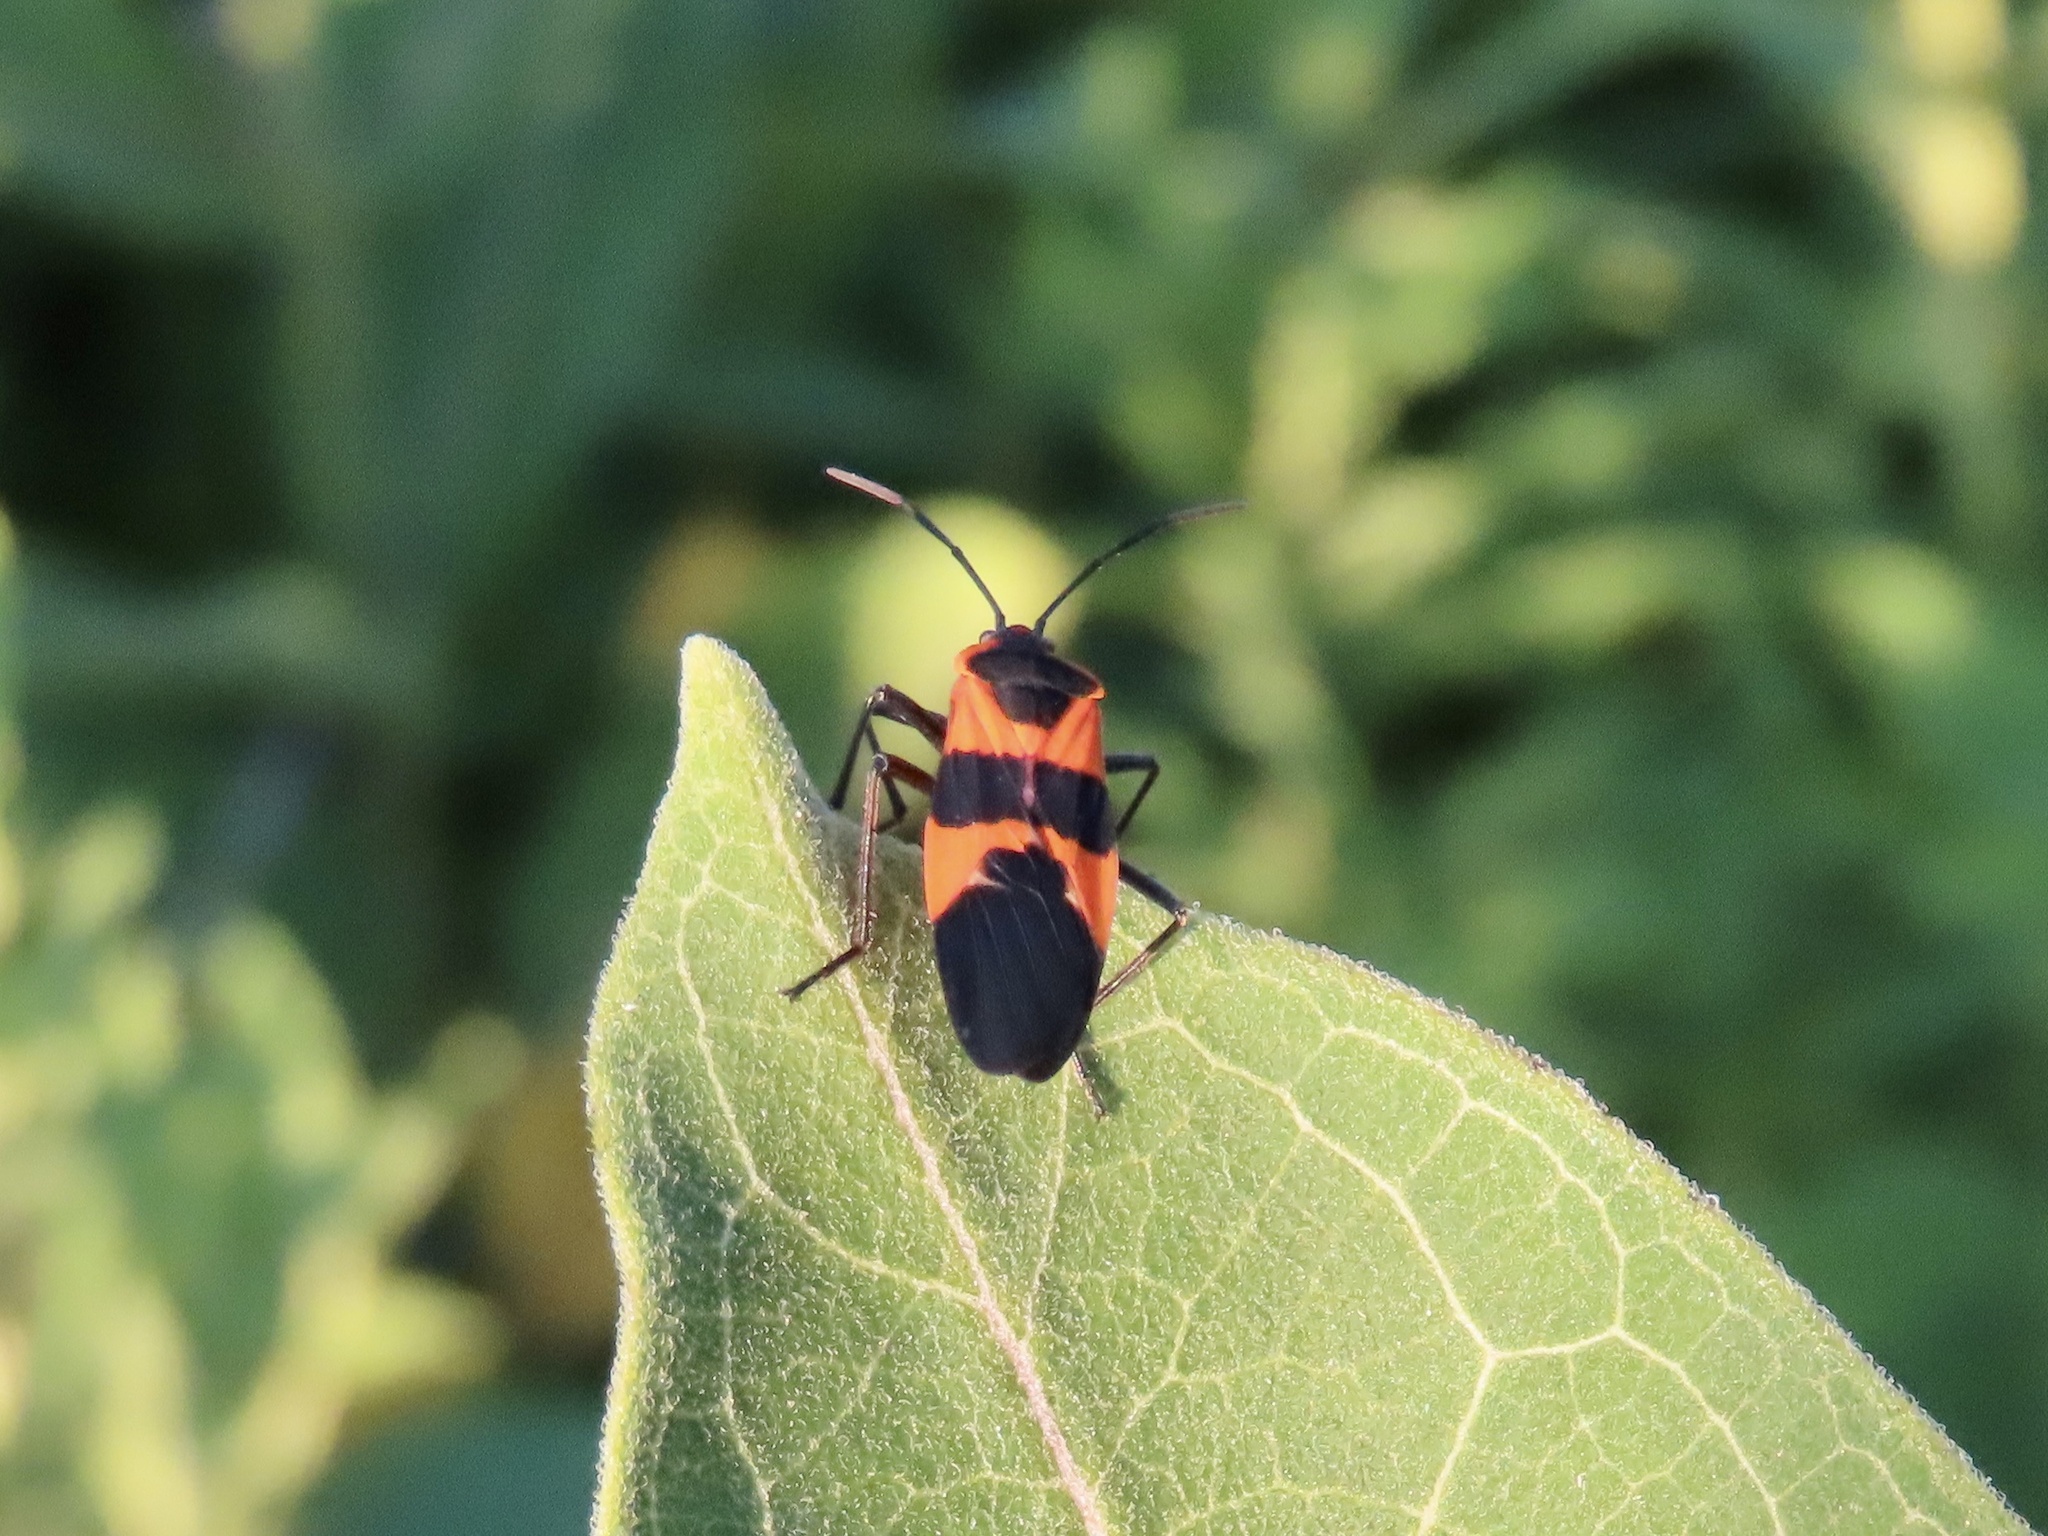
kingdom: Animalia
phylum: Arthropoda
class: Insecta
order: Hemiptera
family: Lygaeidae
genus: Oncopeltus
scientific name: Oncopeltus fasciatus
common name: Large milkweed bug
